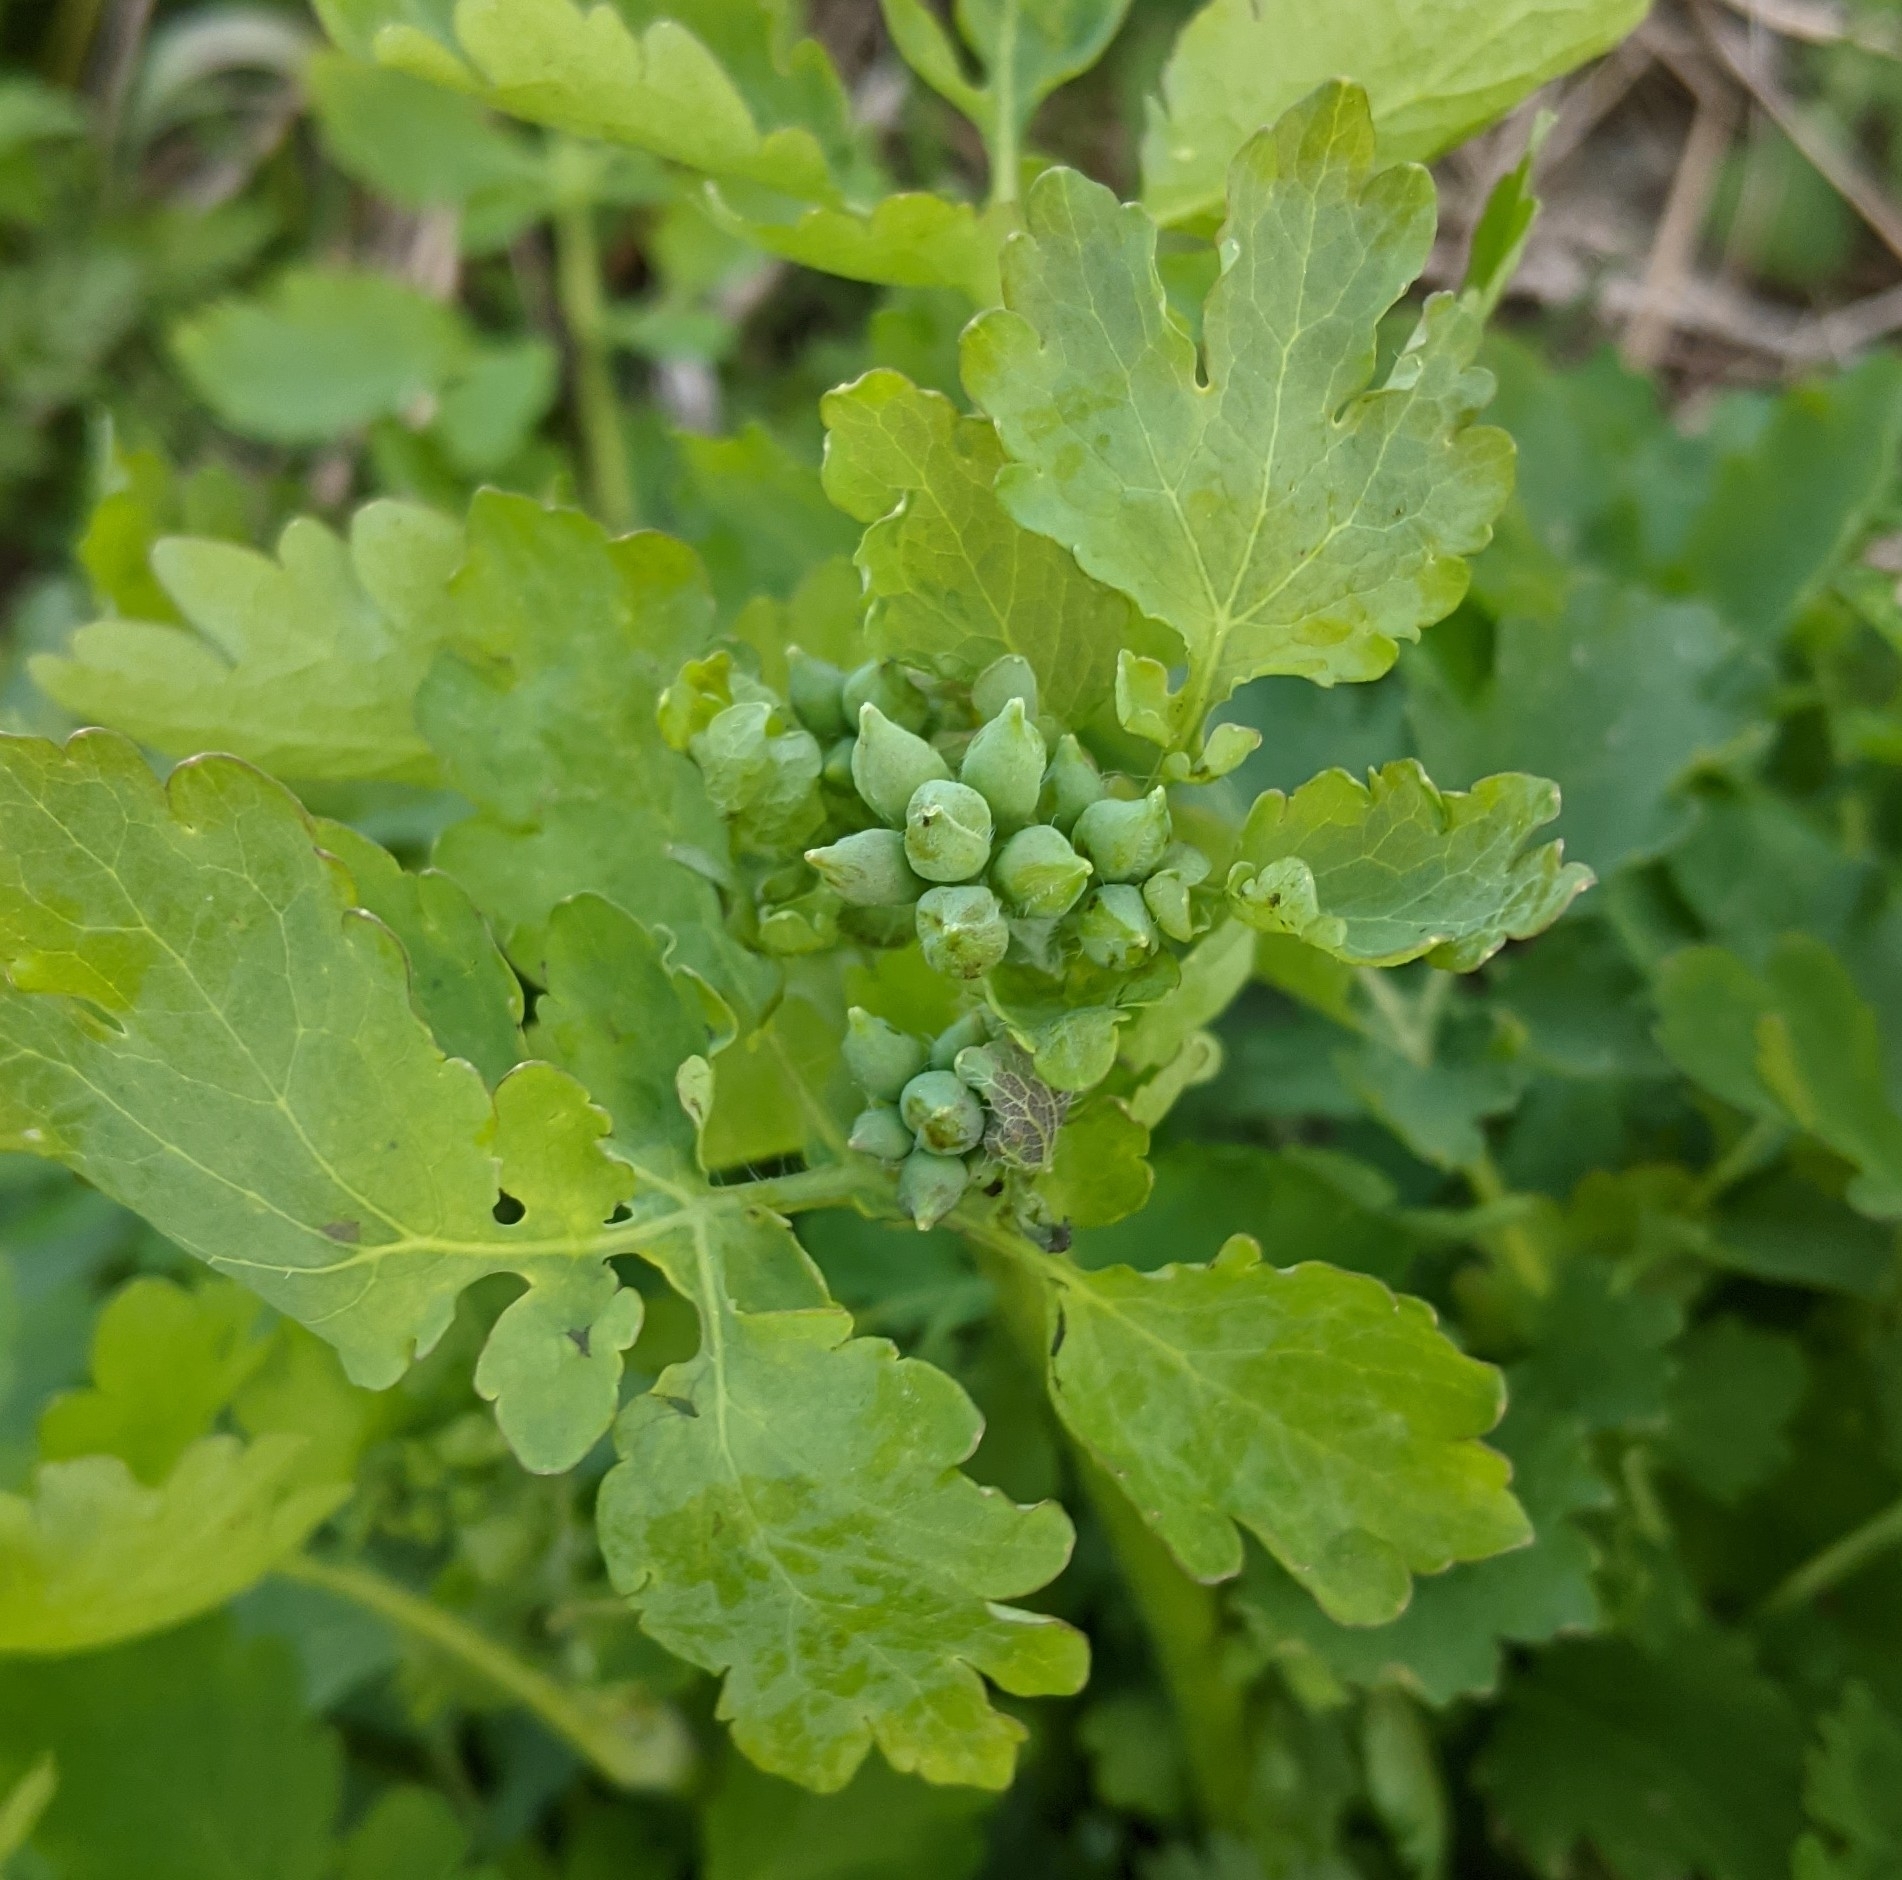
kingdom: Plantae
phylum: Tracheophyta
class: Magnoliopsida
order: Ranunculales
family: Papaveraceae
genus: Chelidonium
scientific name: Chelidonium majus
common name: Greater celandine
